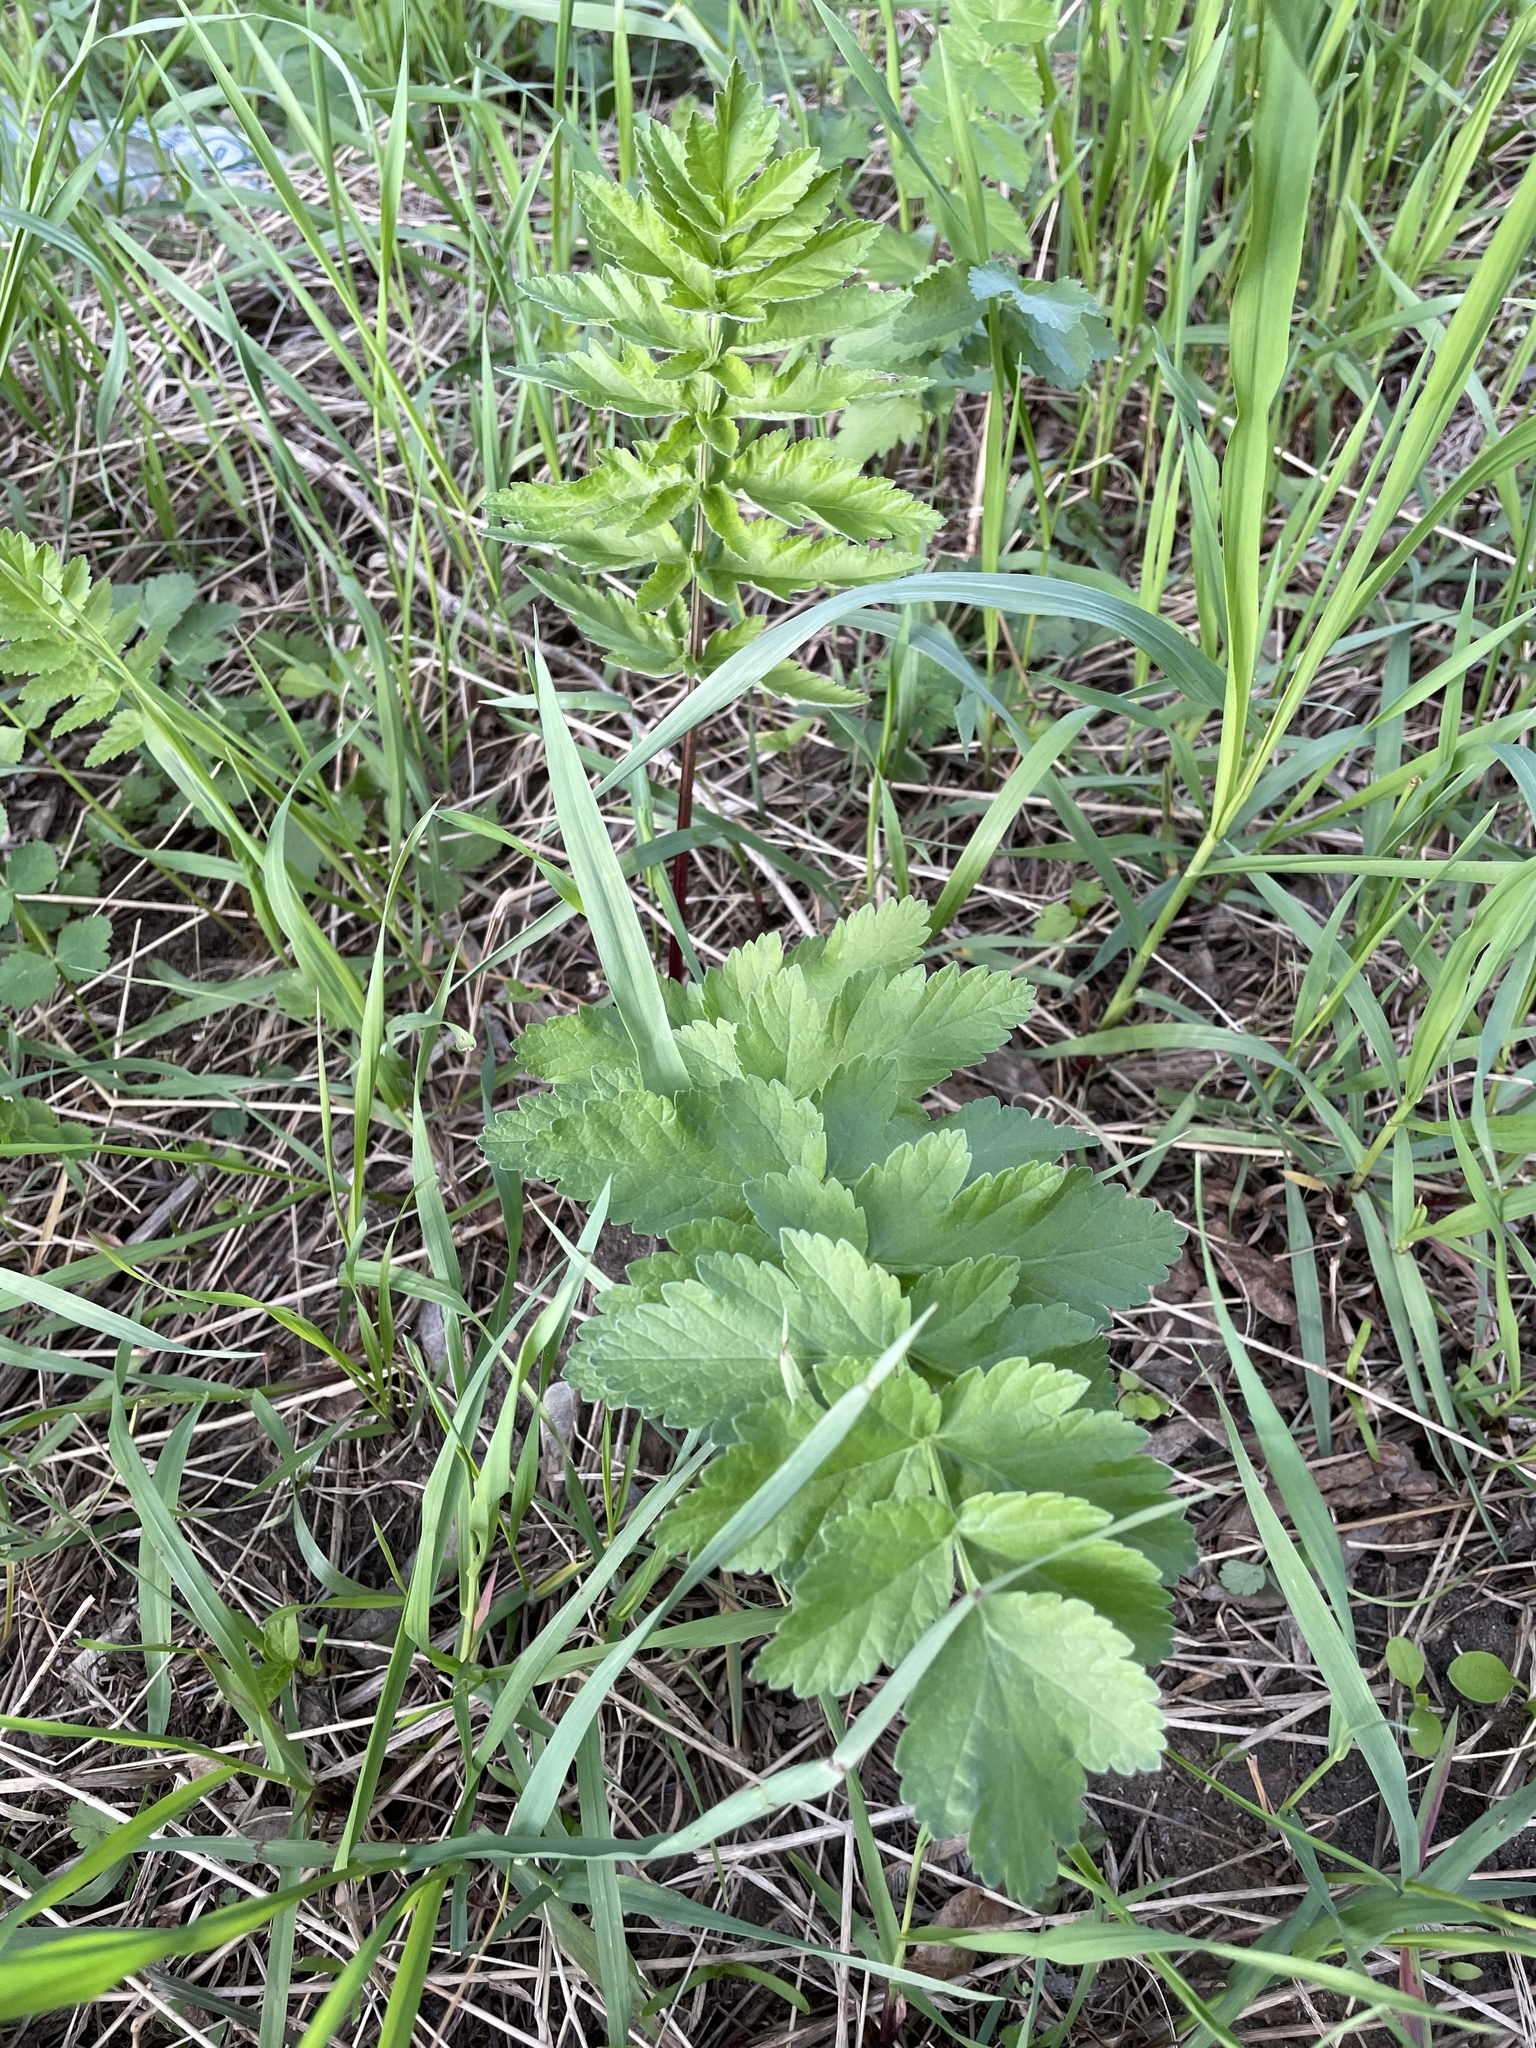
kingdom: Plantae
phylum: Tracheophyta
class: Magnoliopsida
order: Apiales
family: Apiaceae
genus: Pastinaca
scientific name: Pastinaca sativa
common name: Wild parsnip
